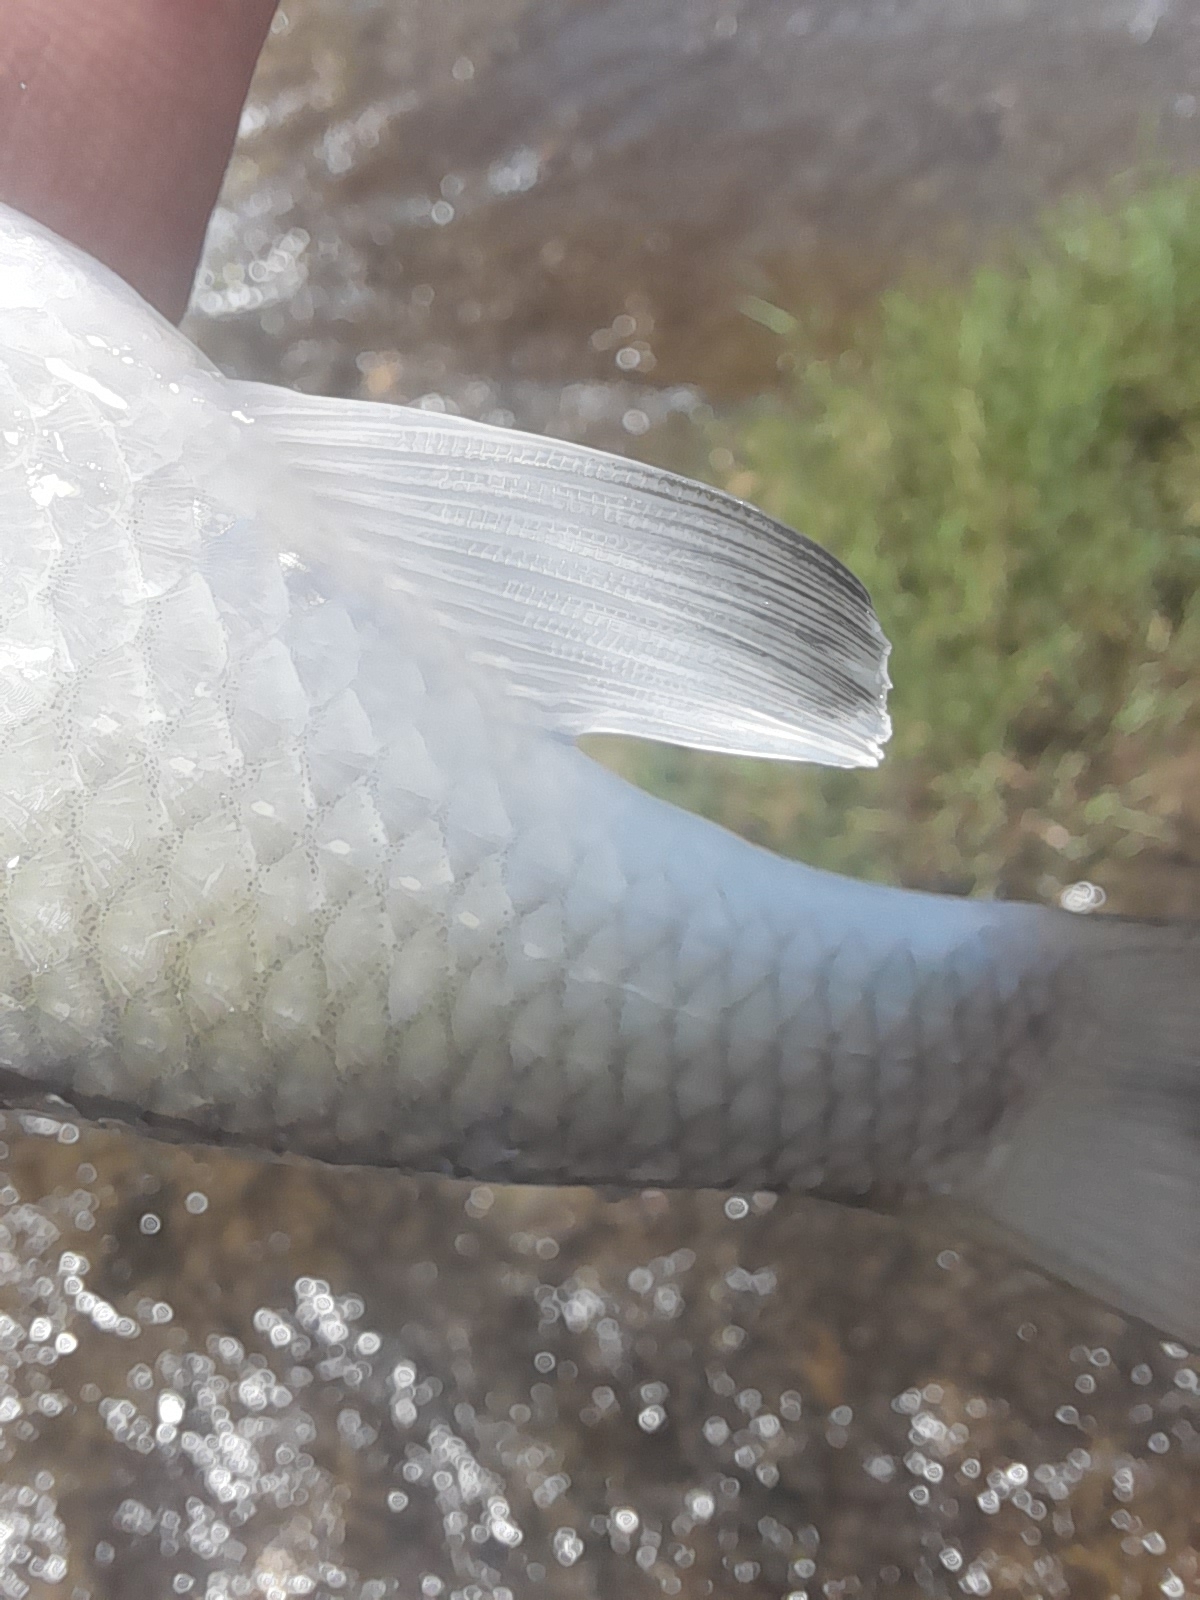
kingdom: Animalia
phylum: Chordata
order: Cypriniformes
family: Cyprinidae
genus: Squalius
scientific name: Squalius squalus
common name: Italian chub
